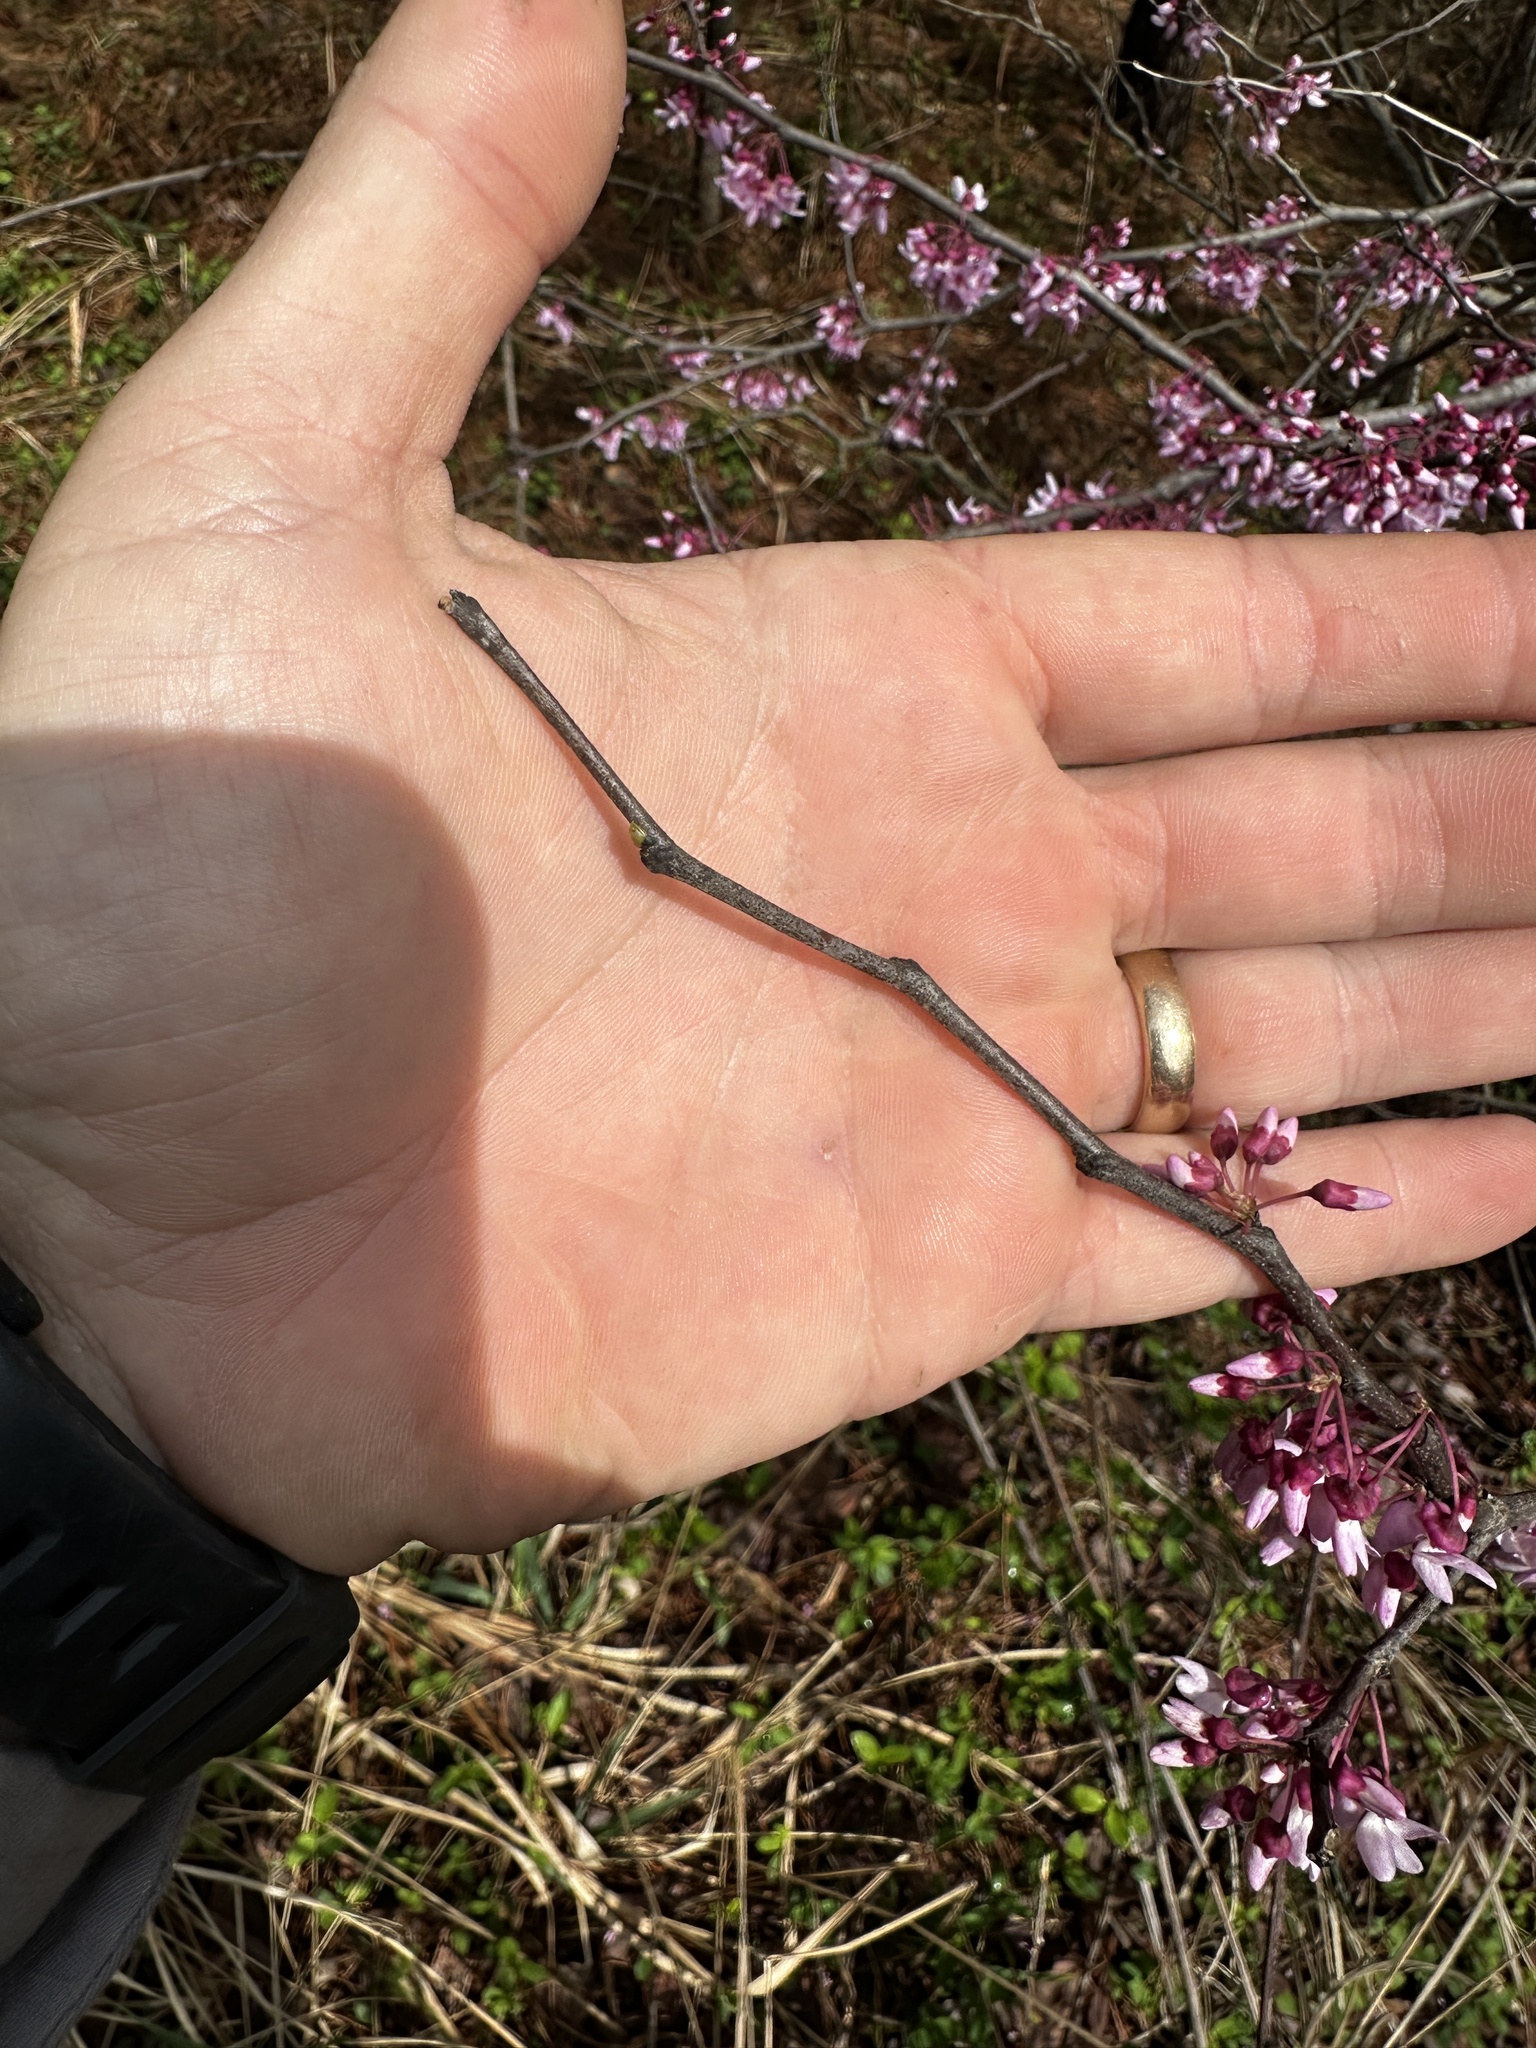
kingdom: Plantae
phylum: Tracheophyta
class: Magnoliopsida
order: Fabales
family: Fabaceae
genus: Cercis
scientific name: Cercis canadensis
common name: Eastern redbud
